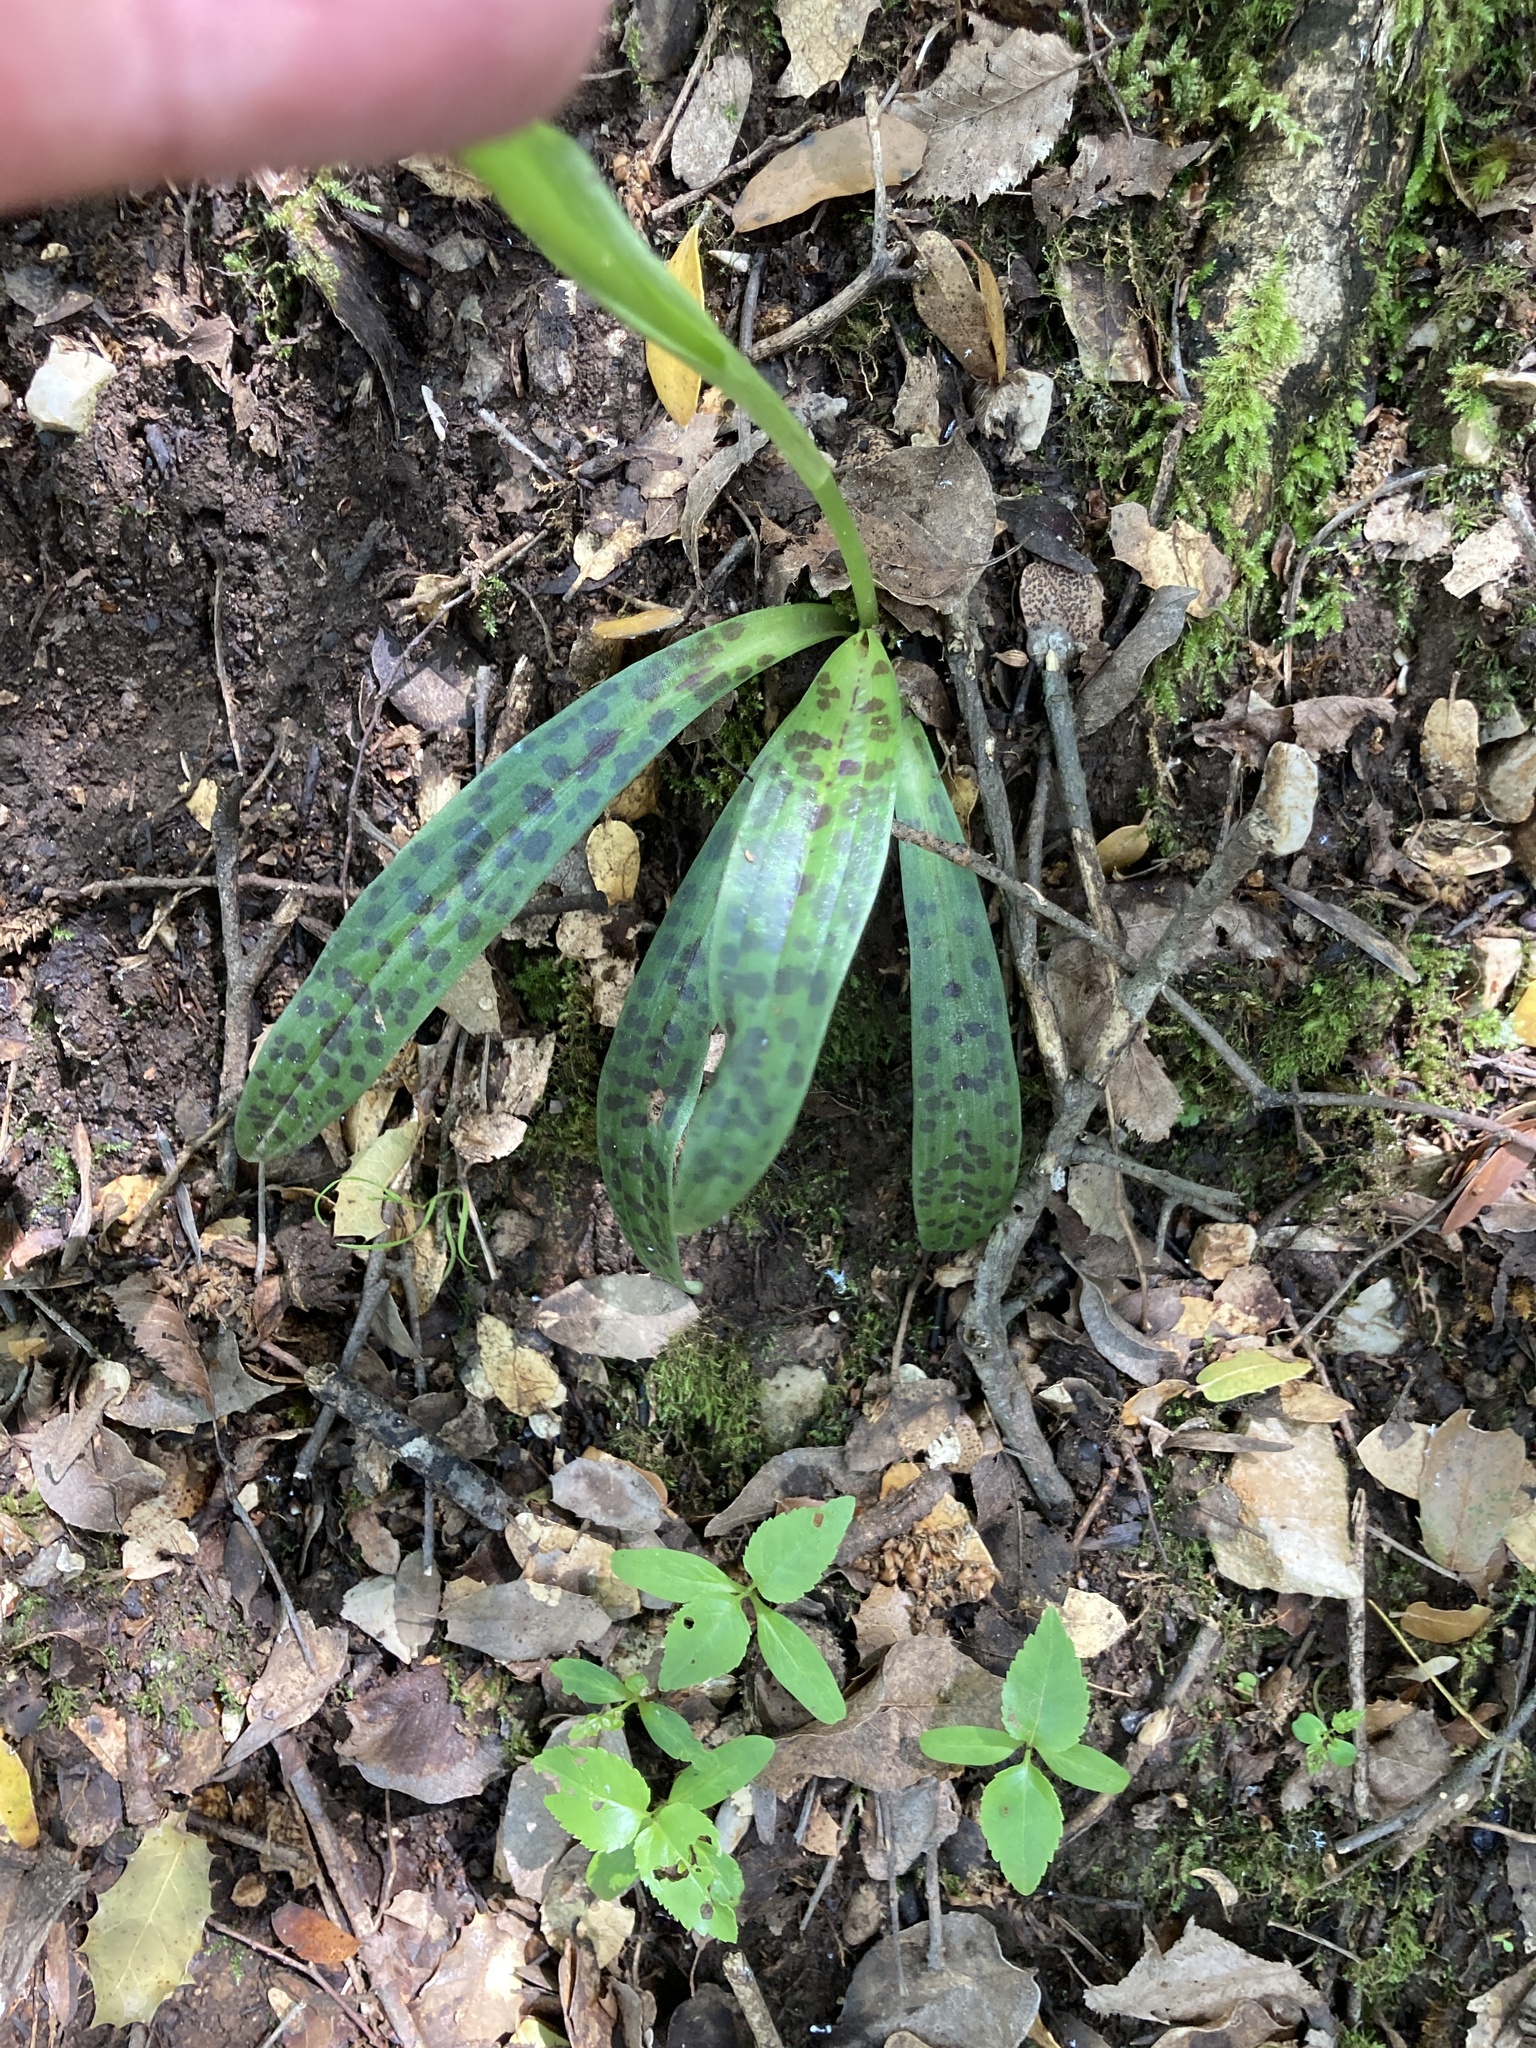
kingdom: Plantae
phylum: Tracheophyta
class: Liliopsida
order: Asparagales
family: Orchidaceae
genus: Orchis
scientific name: Orchis provincialis
